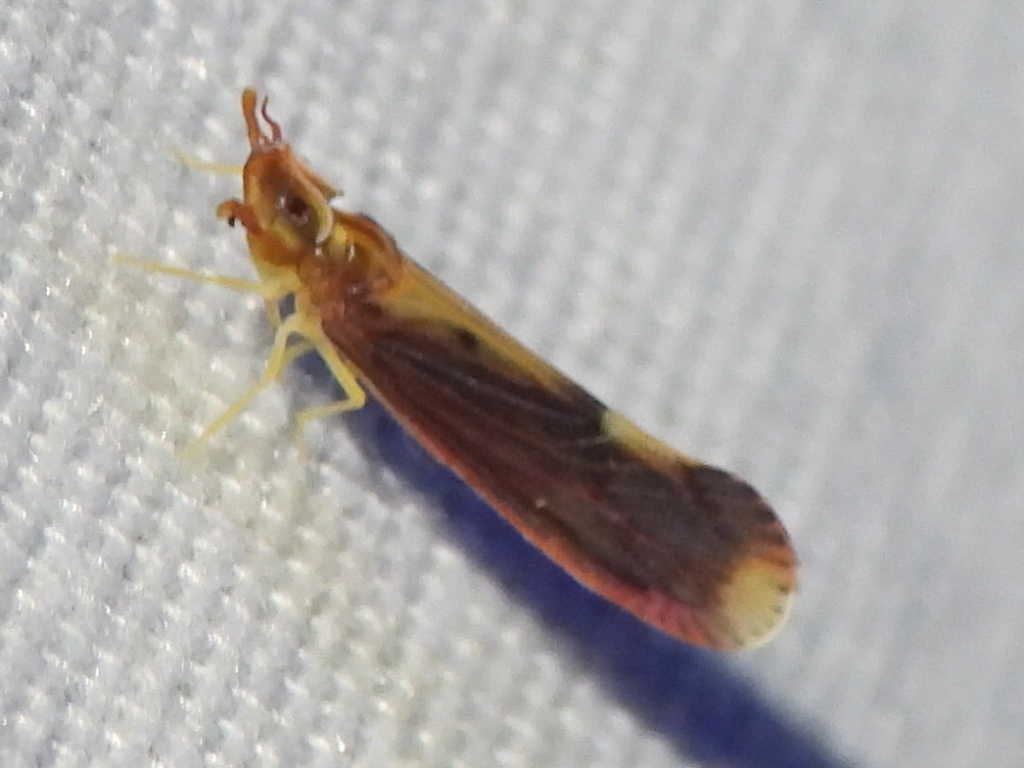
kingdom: Animalia
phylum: Arthropoda
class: Insecta
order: Hemiptera
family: Derbidae
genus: Otiocerus
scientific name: Otiocerus stollii
